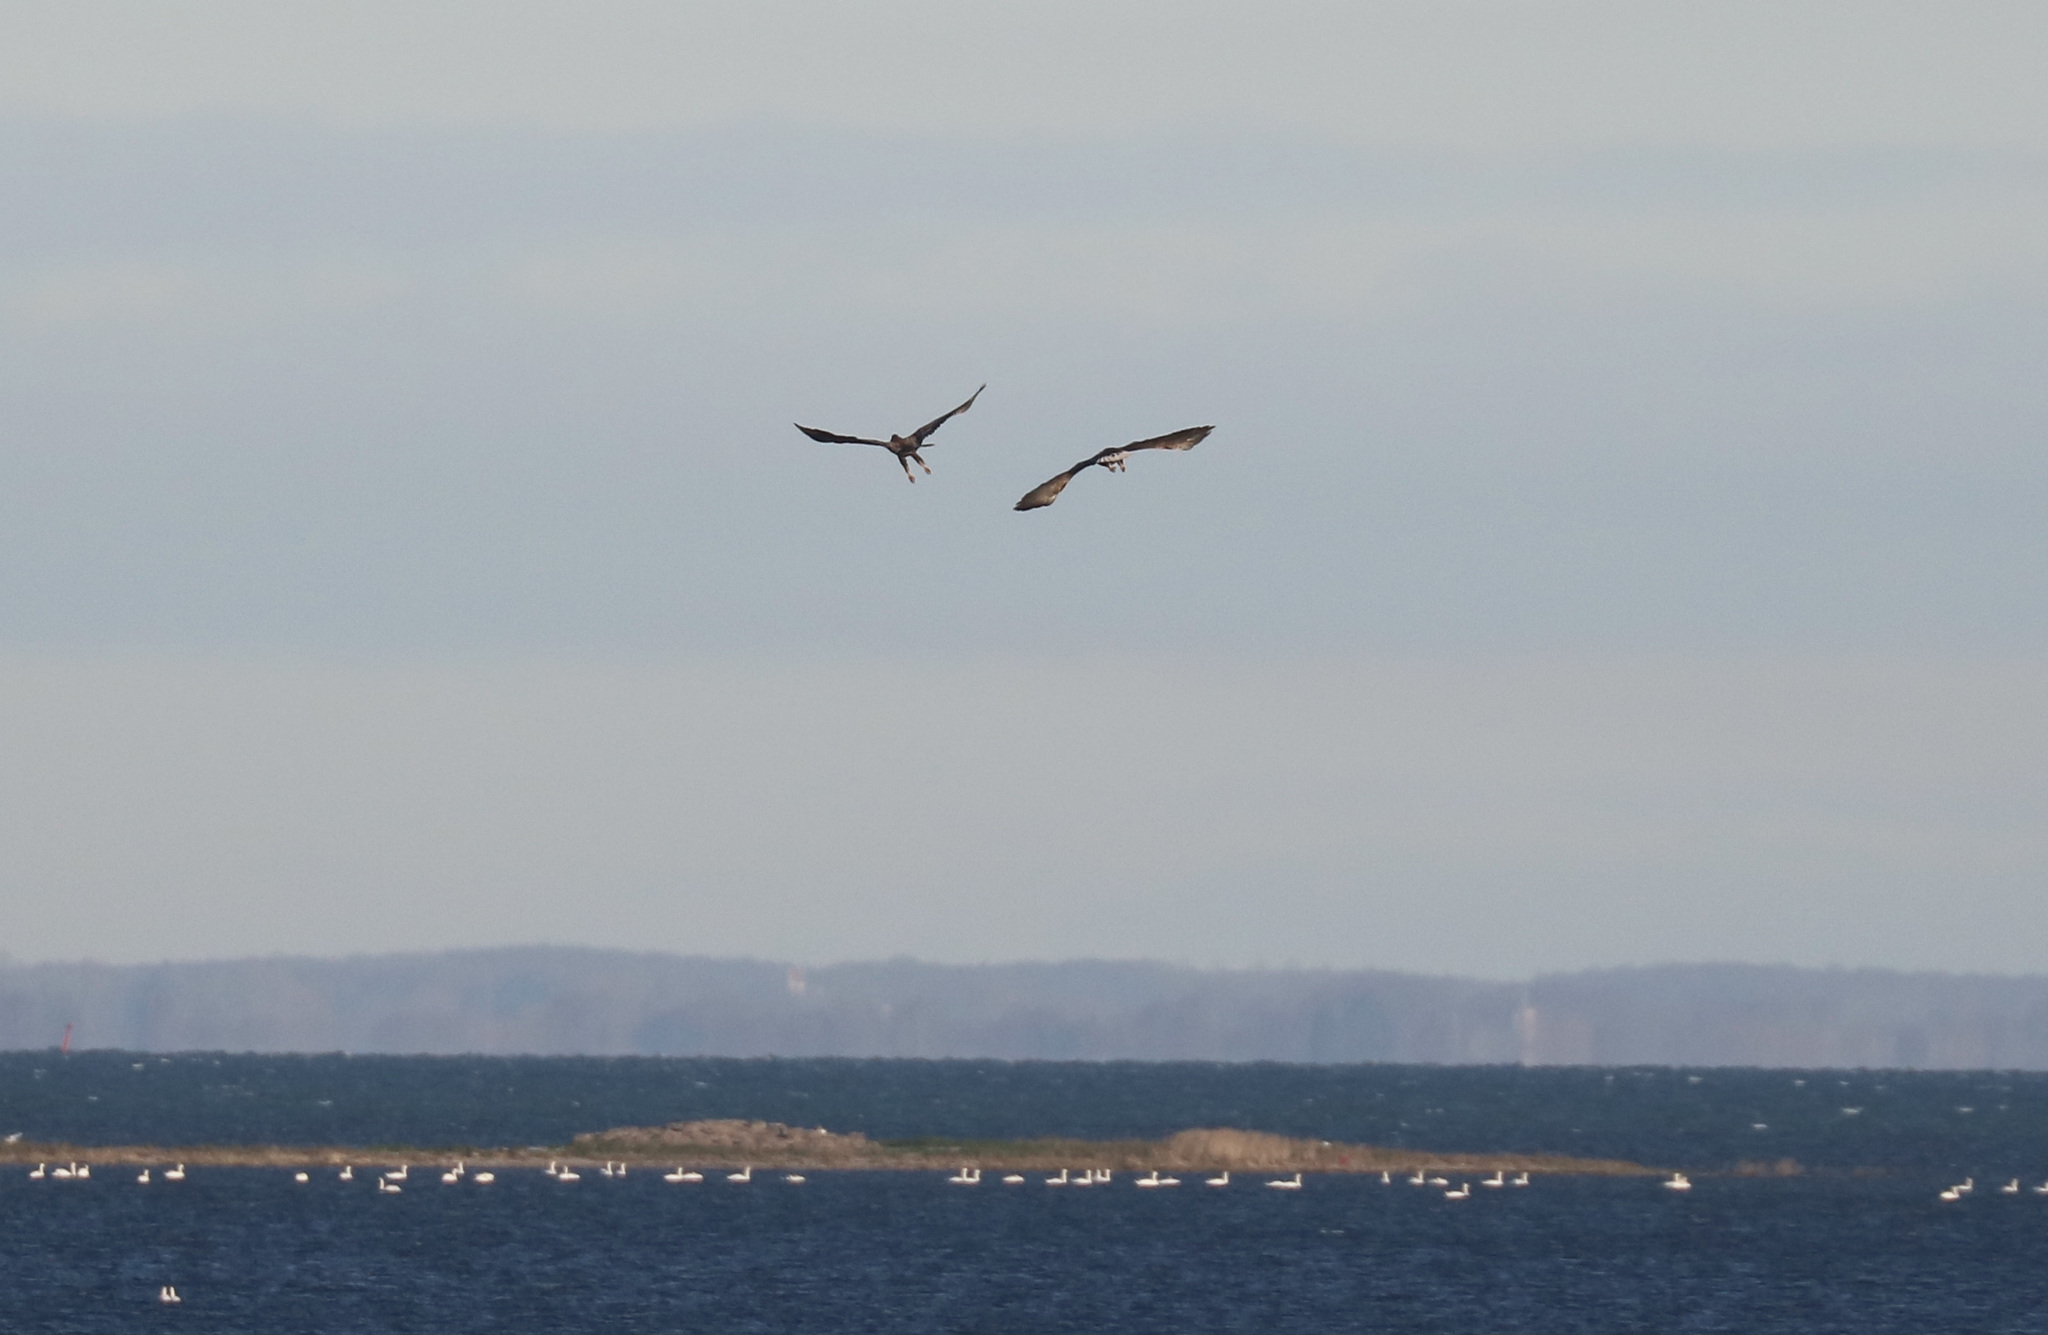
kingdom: Animalia
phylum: Chordata
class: Aves
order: Accipitriformes
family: Accipitridae
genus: Haliaeetus
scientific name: Haliaeetus albicilla
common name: White-tailed eagle
